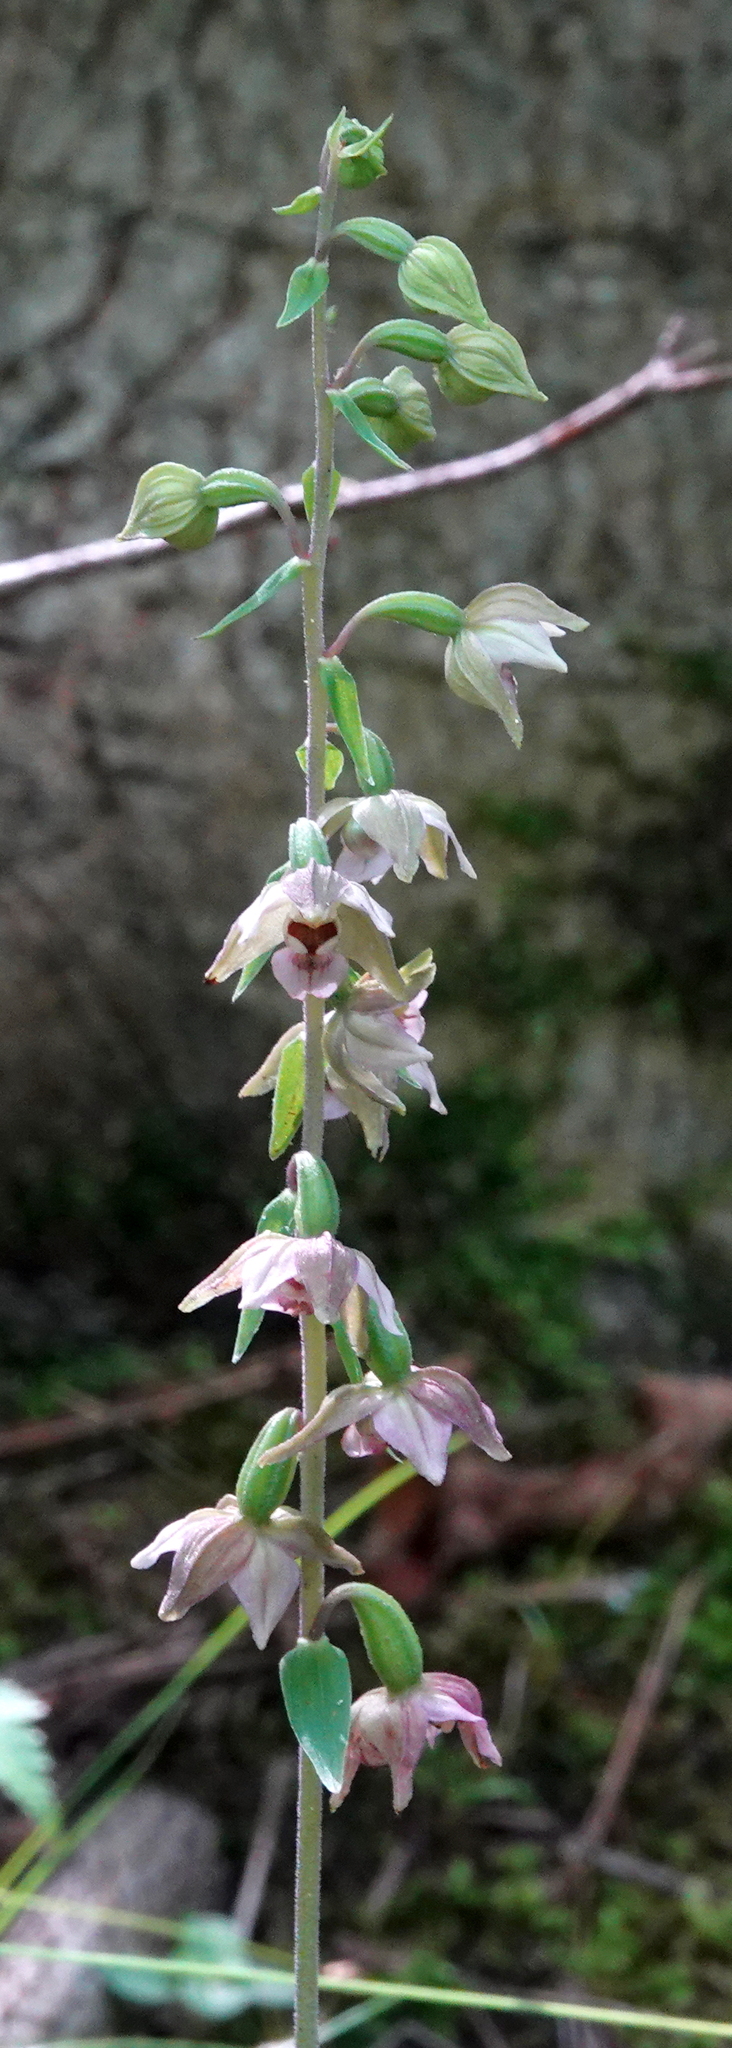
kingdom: Plantae
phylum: Tracheophyta
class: Liliopsida
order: Asparagales
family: Orchidaceae
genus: Epipactis
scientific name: Epipactis helleborine
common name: Broad-leaved helleborine
